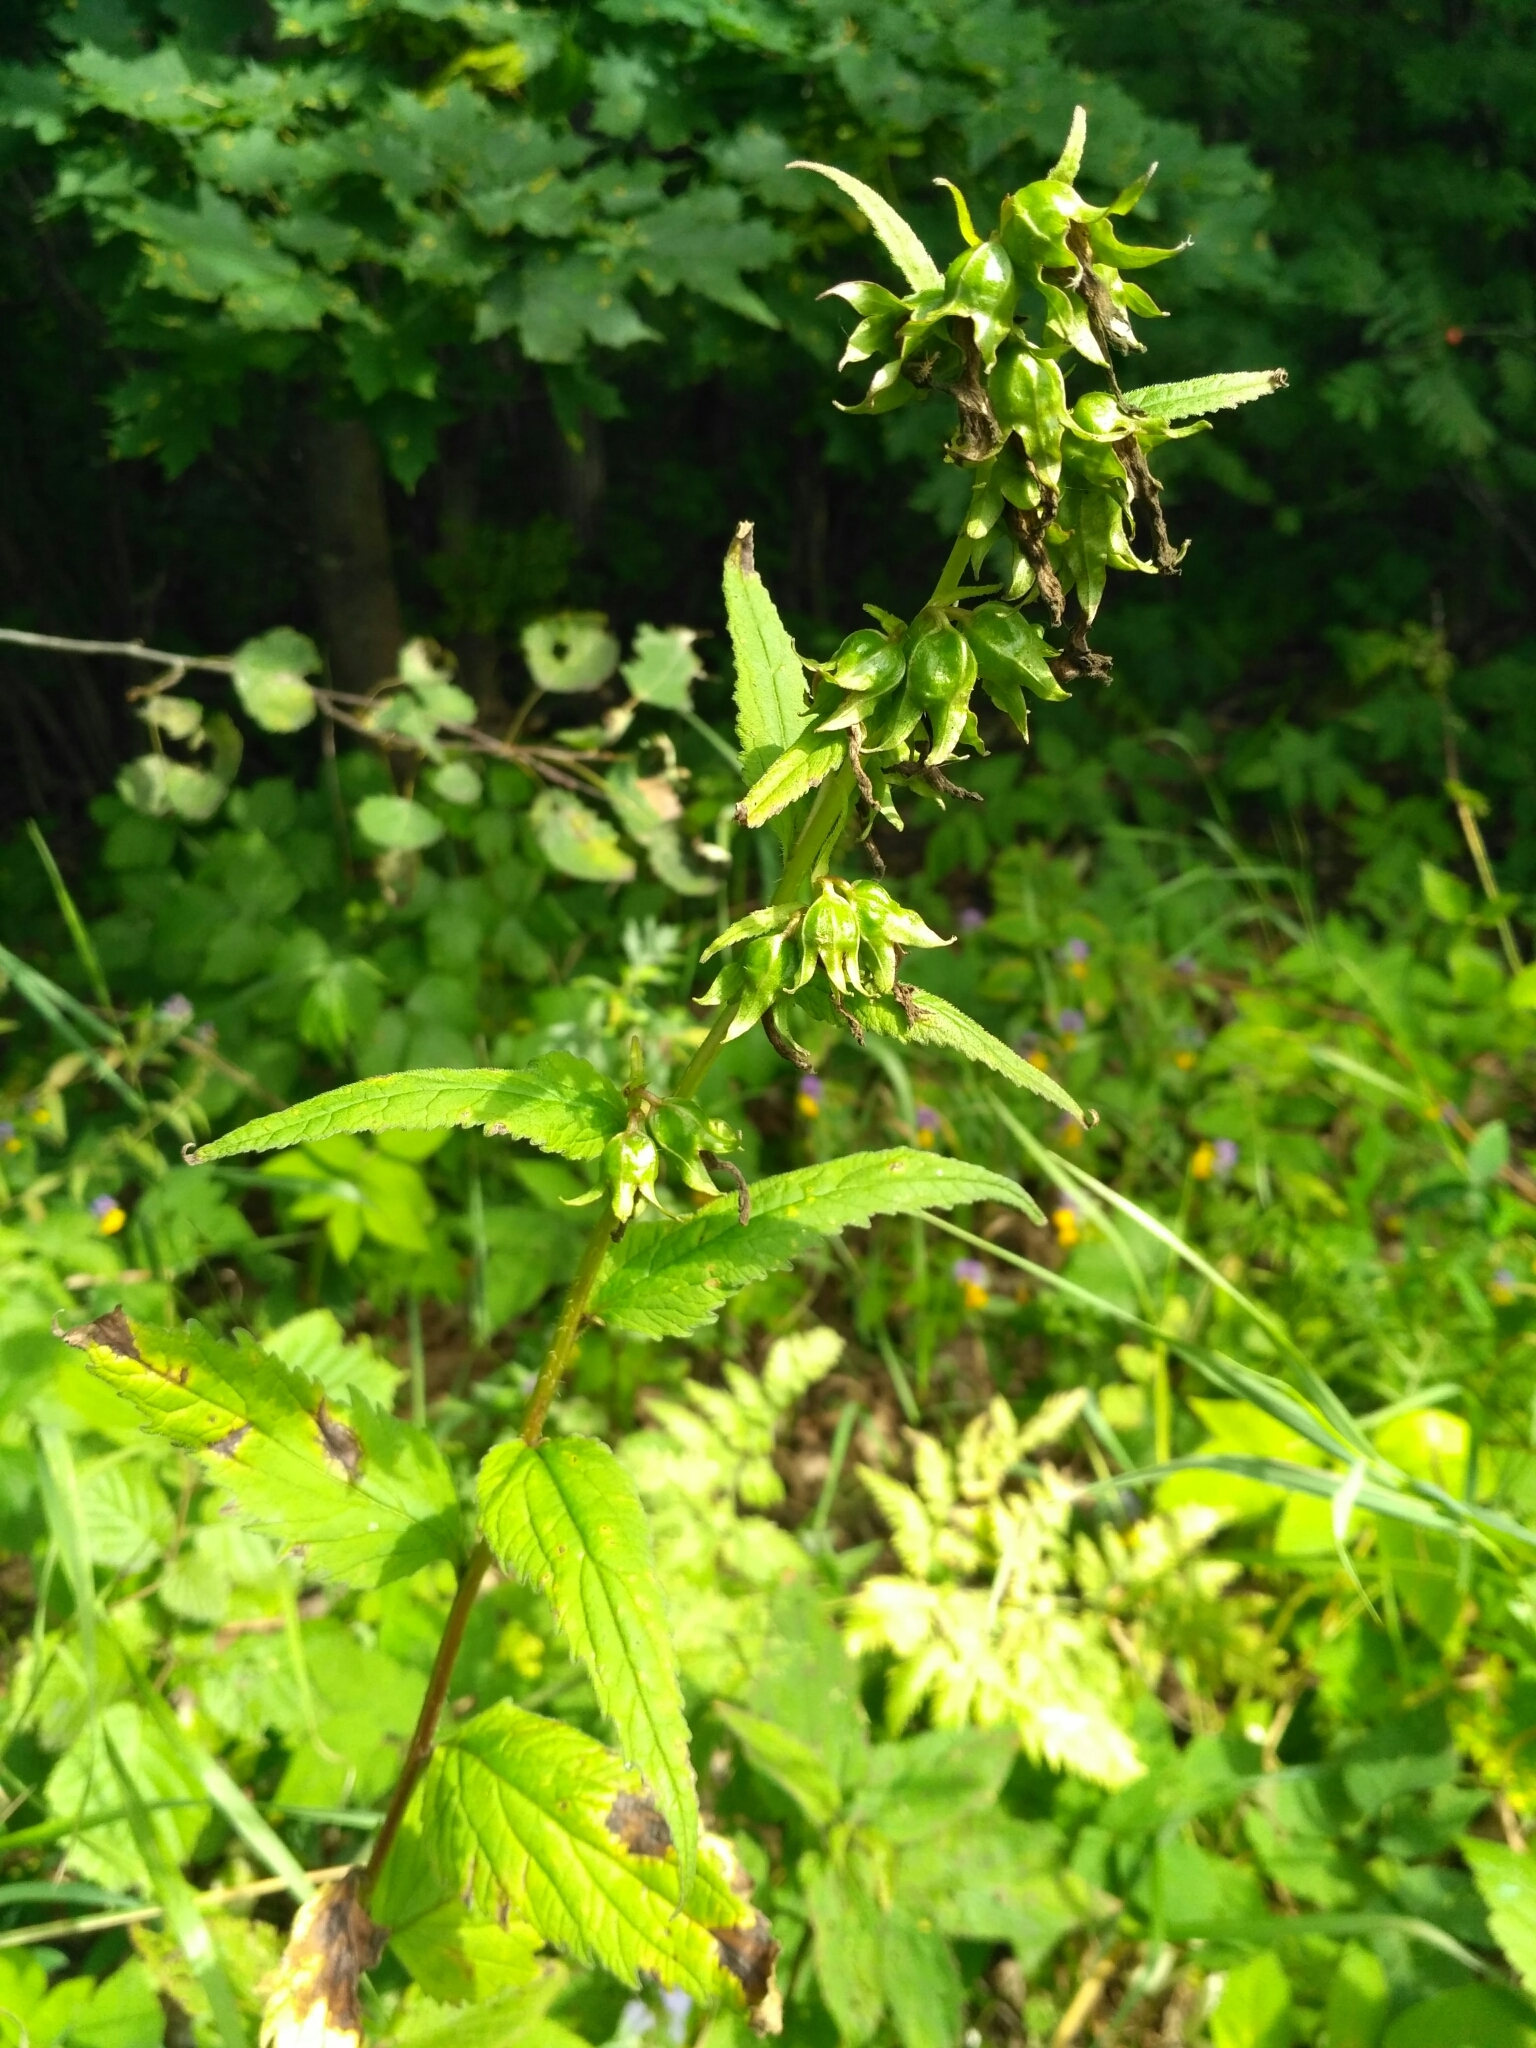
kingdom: Plantae
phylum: Tracheophyta
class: Magnoliopsida
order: Asterales
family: Campanulaceae
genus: Campanula
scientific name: Campanula trachelium
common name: Nettle-leaved bellflower
